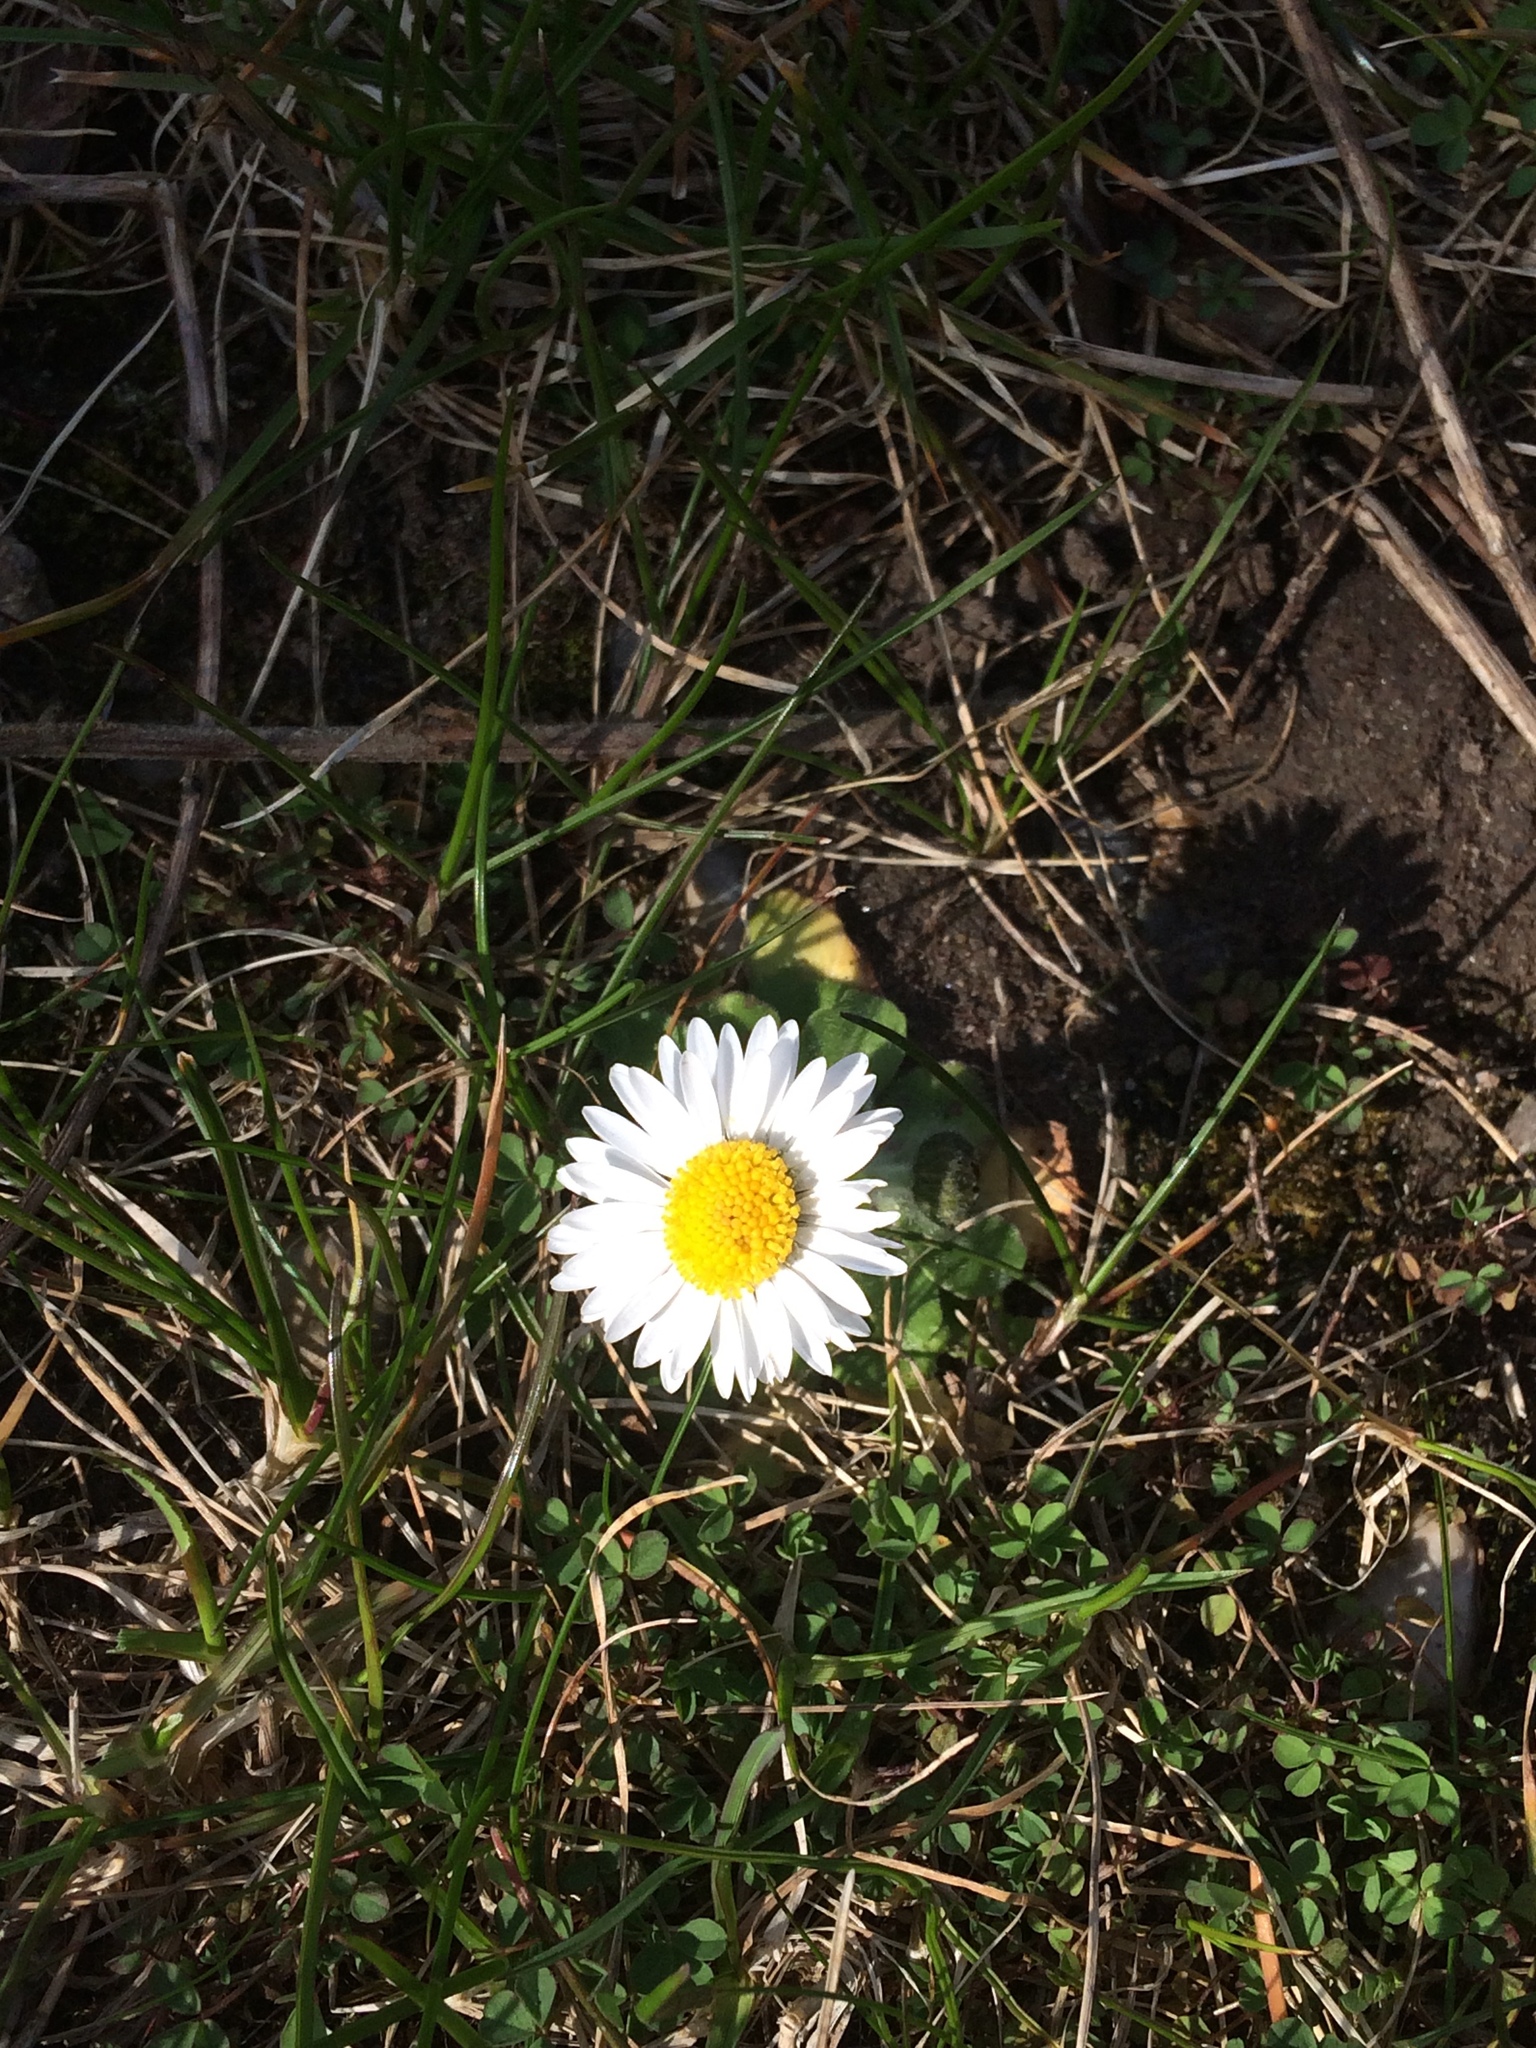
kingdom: Plantae
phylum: Tracheophyta
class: Magnoliopsida
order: Asterales
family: Asteraceae
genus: Bellis
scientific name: Bellis perennis
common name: Lawndaisy
